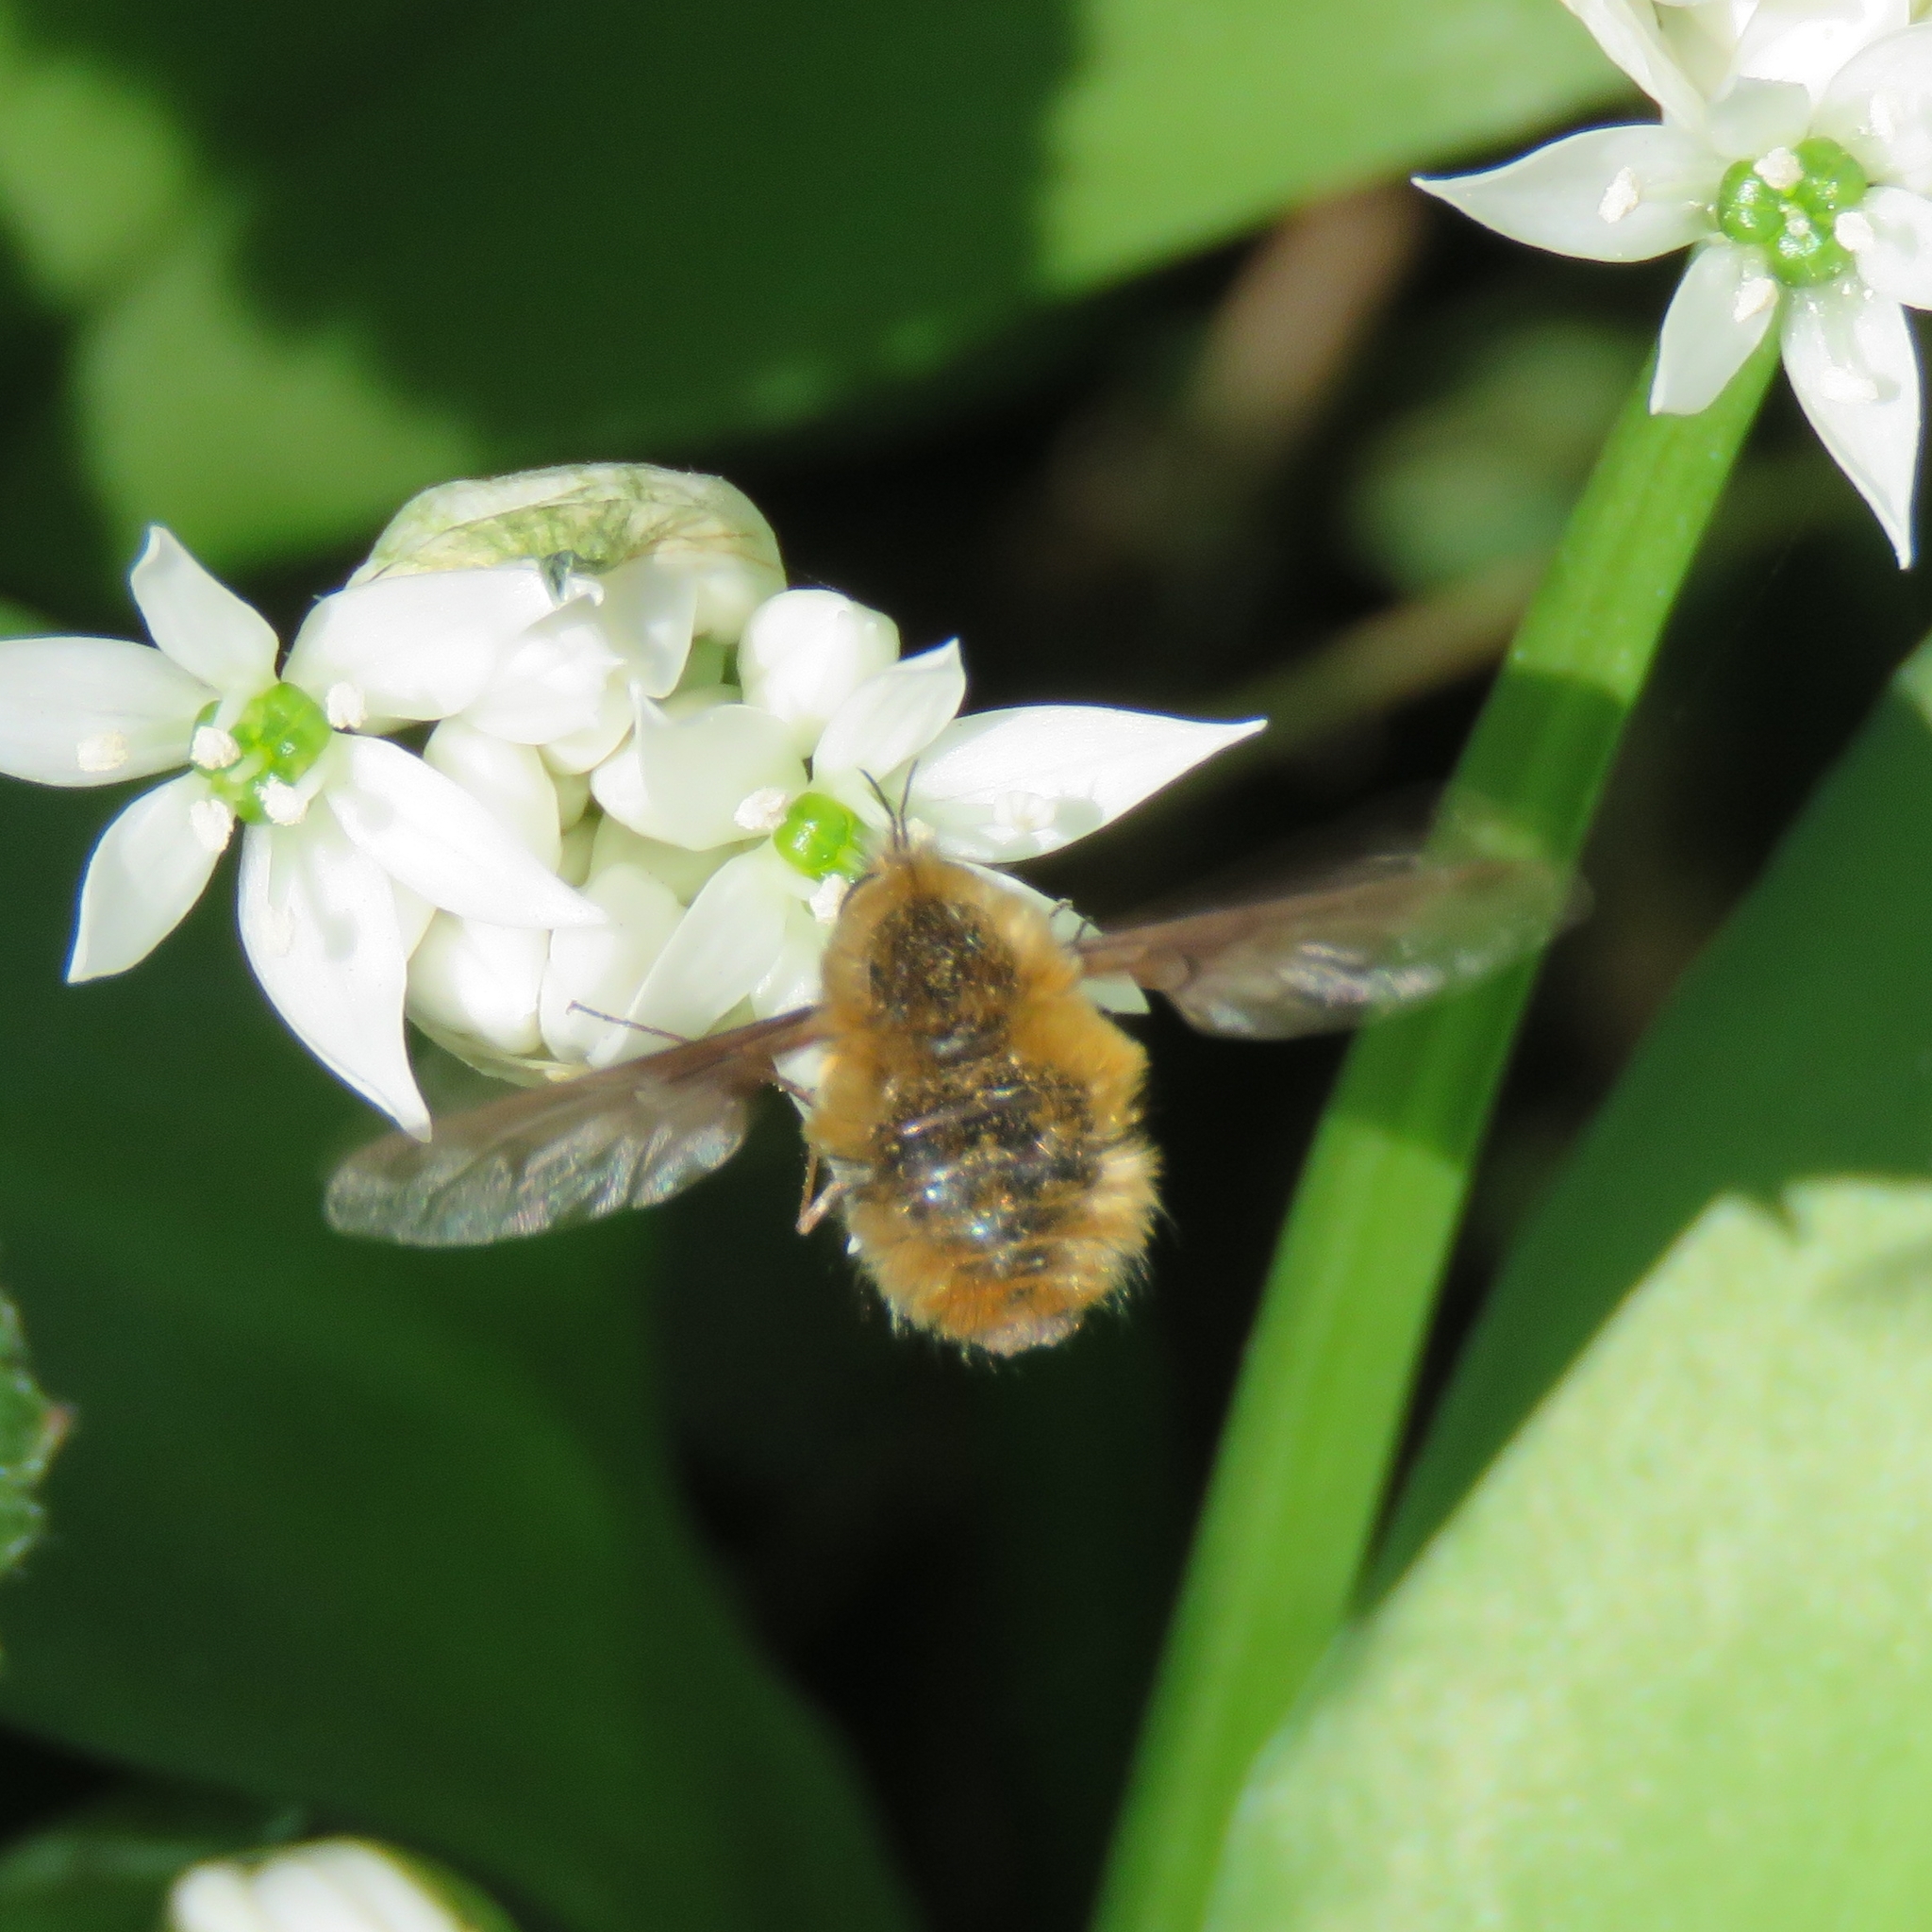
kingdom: Animalia
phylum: Arthropoda
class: Insecta
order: Diptera
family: Bombyliidae
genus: Bombylius
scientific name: Bombylius major
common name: Bee fly
